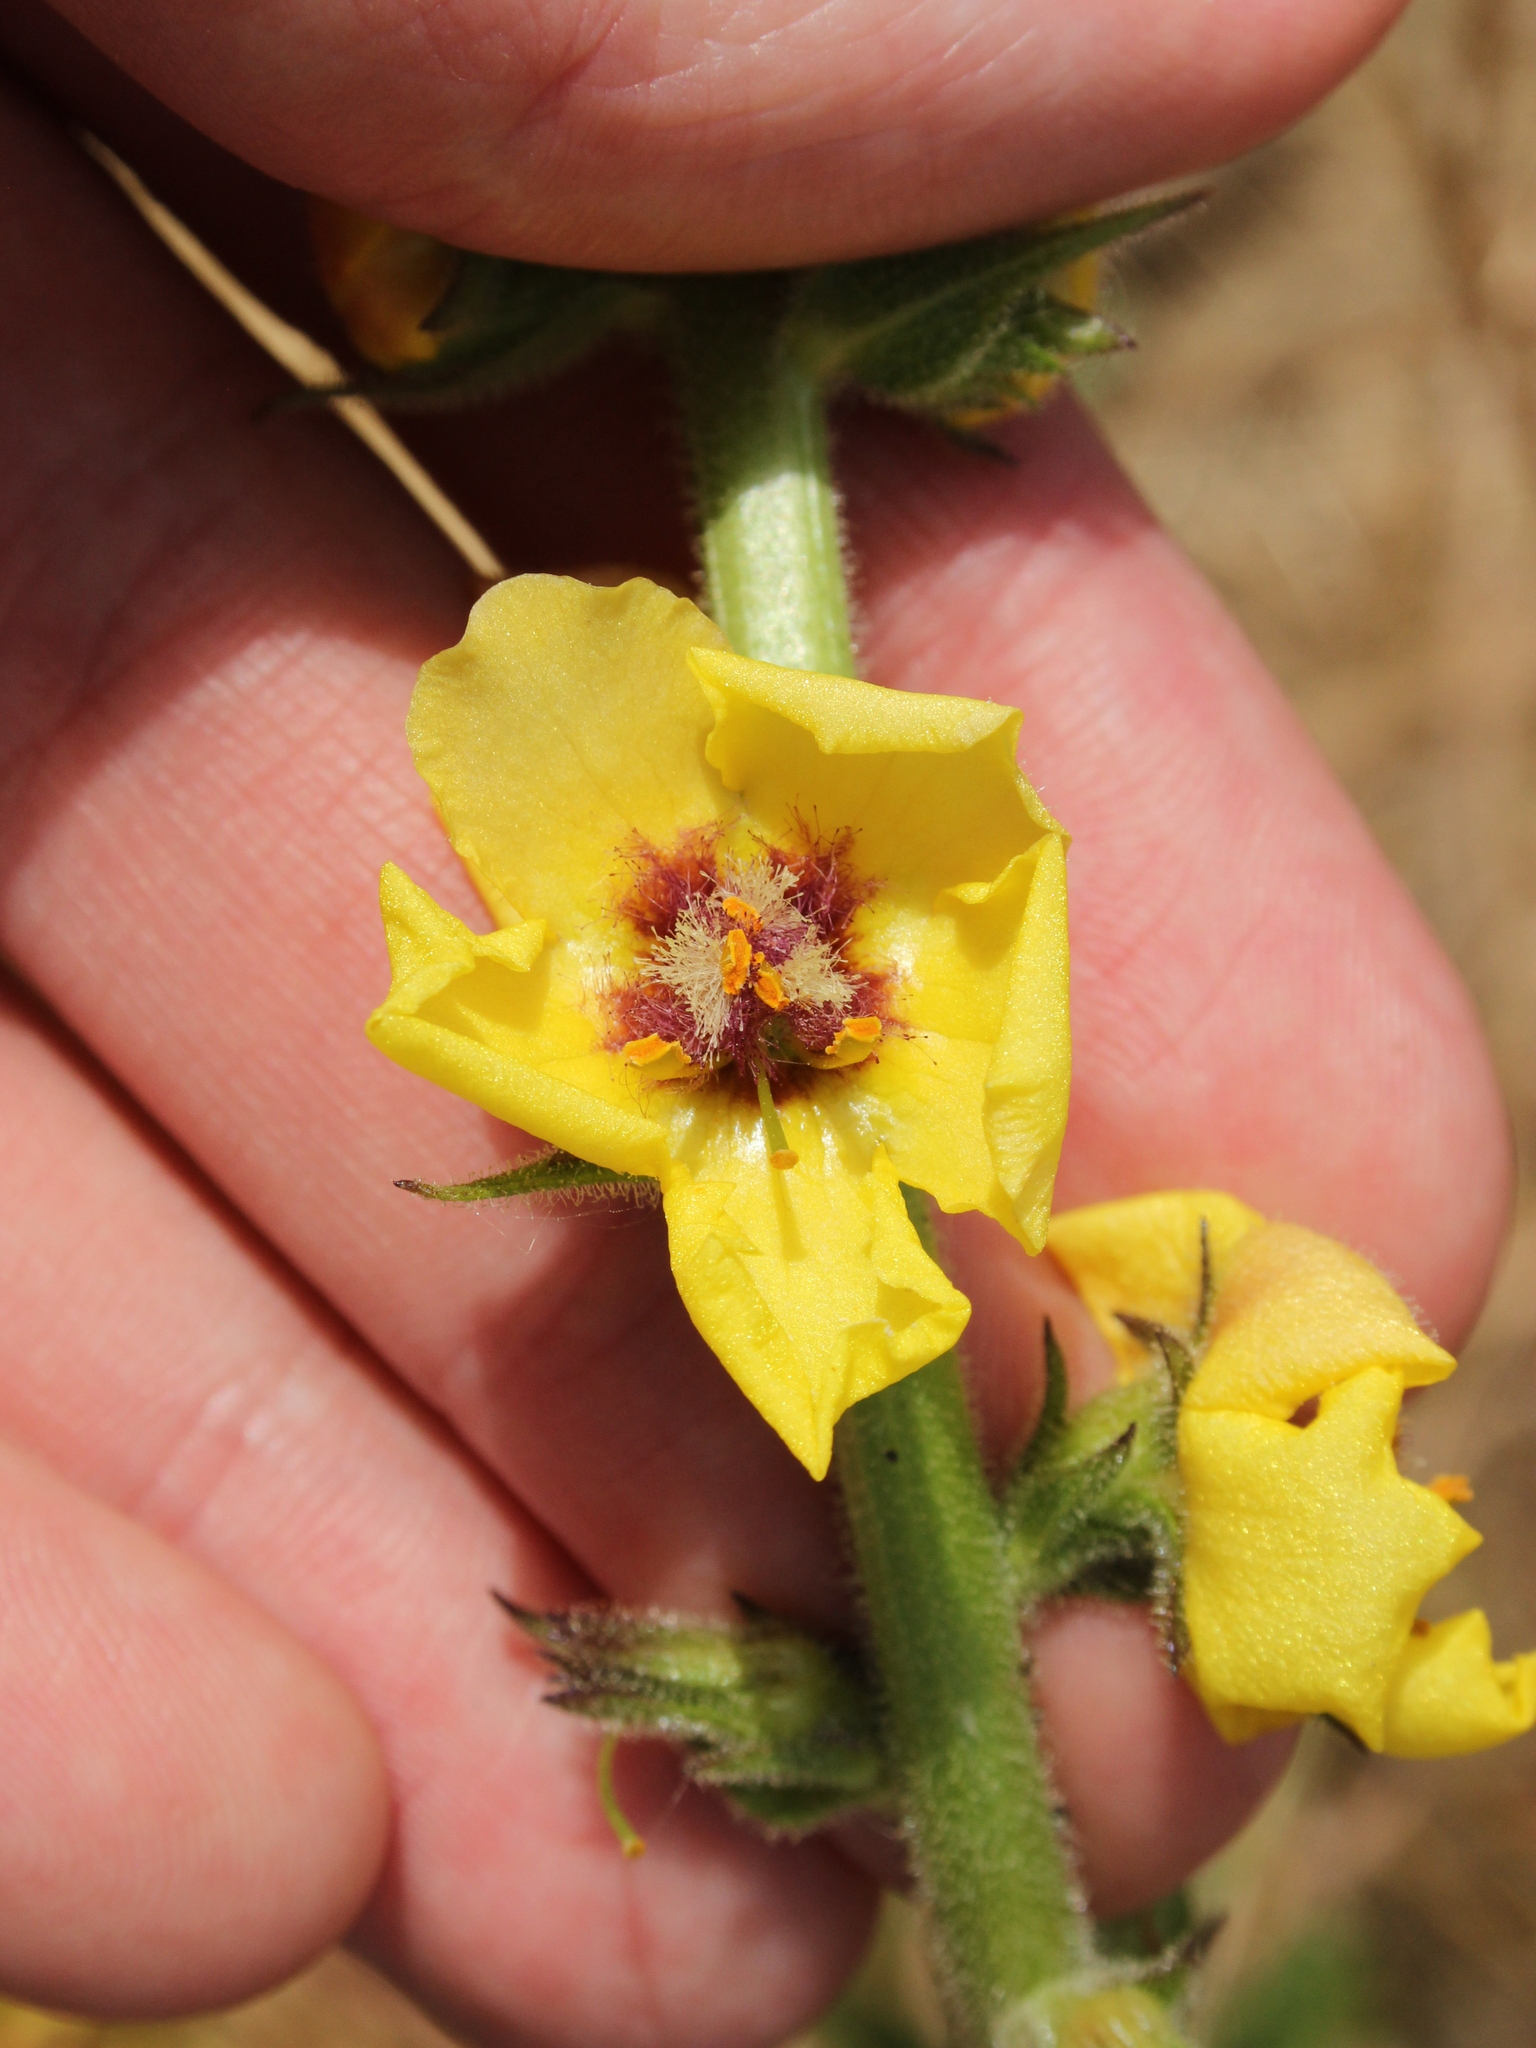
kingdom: Plantae
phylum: Tracheophyta
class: Magnoliopsida
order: Lamiales
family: Scrophulariaceae
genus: Verbascum
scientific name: Verbascum virgatum
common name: Twiggy mullein
